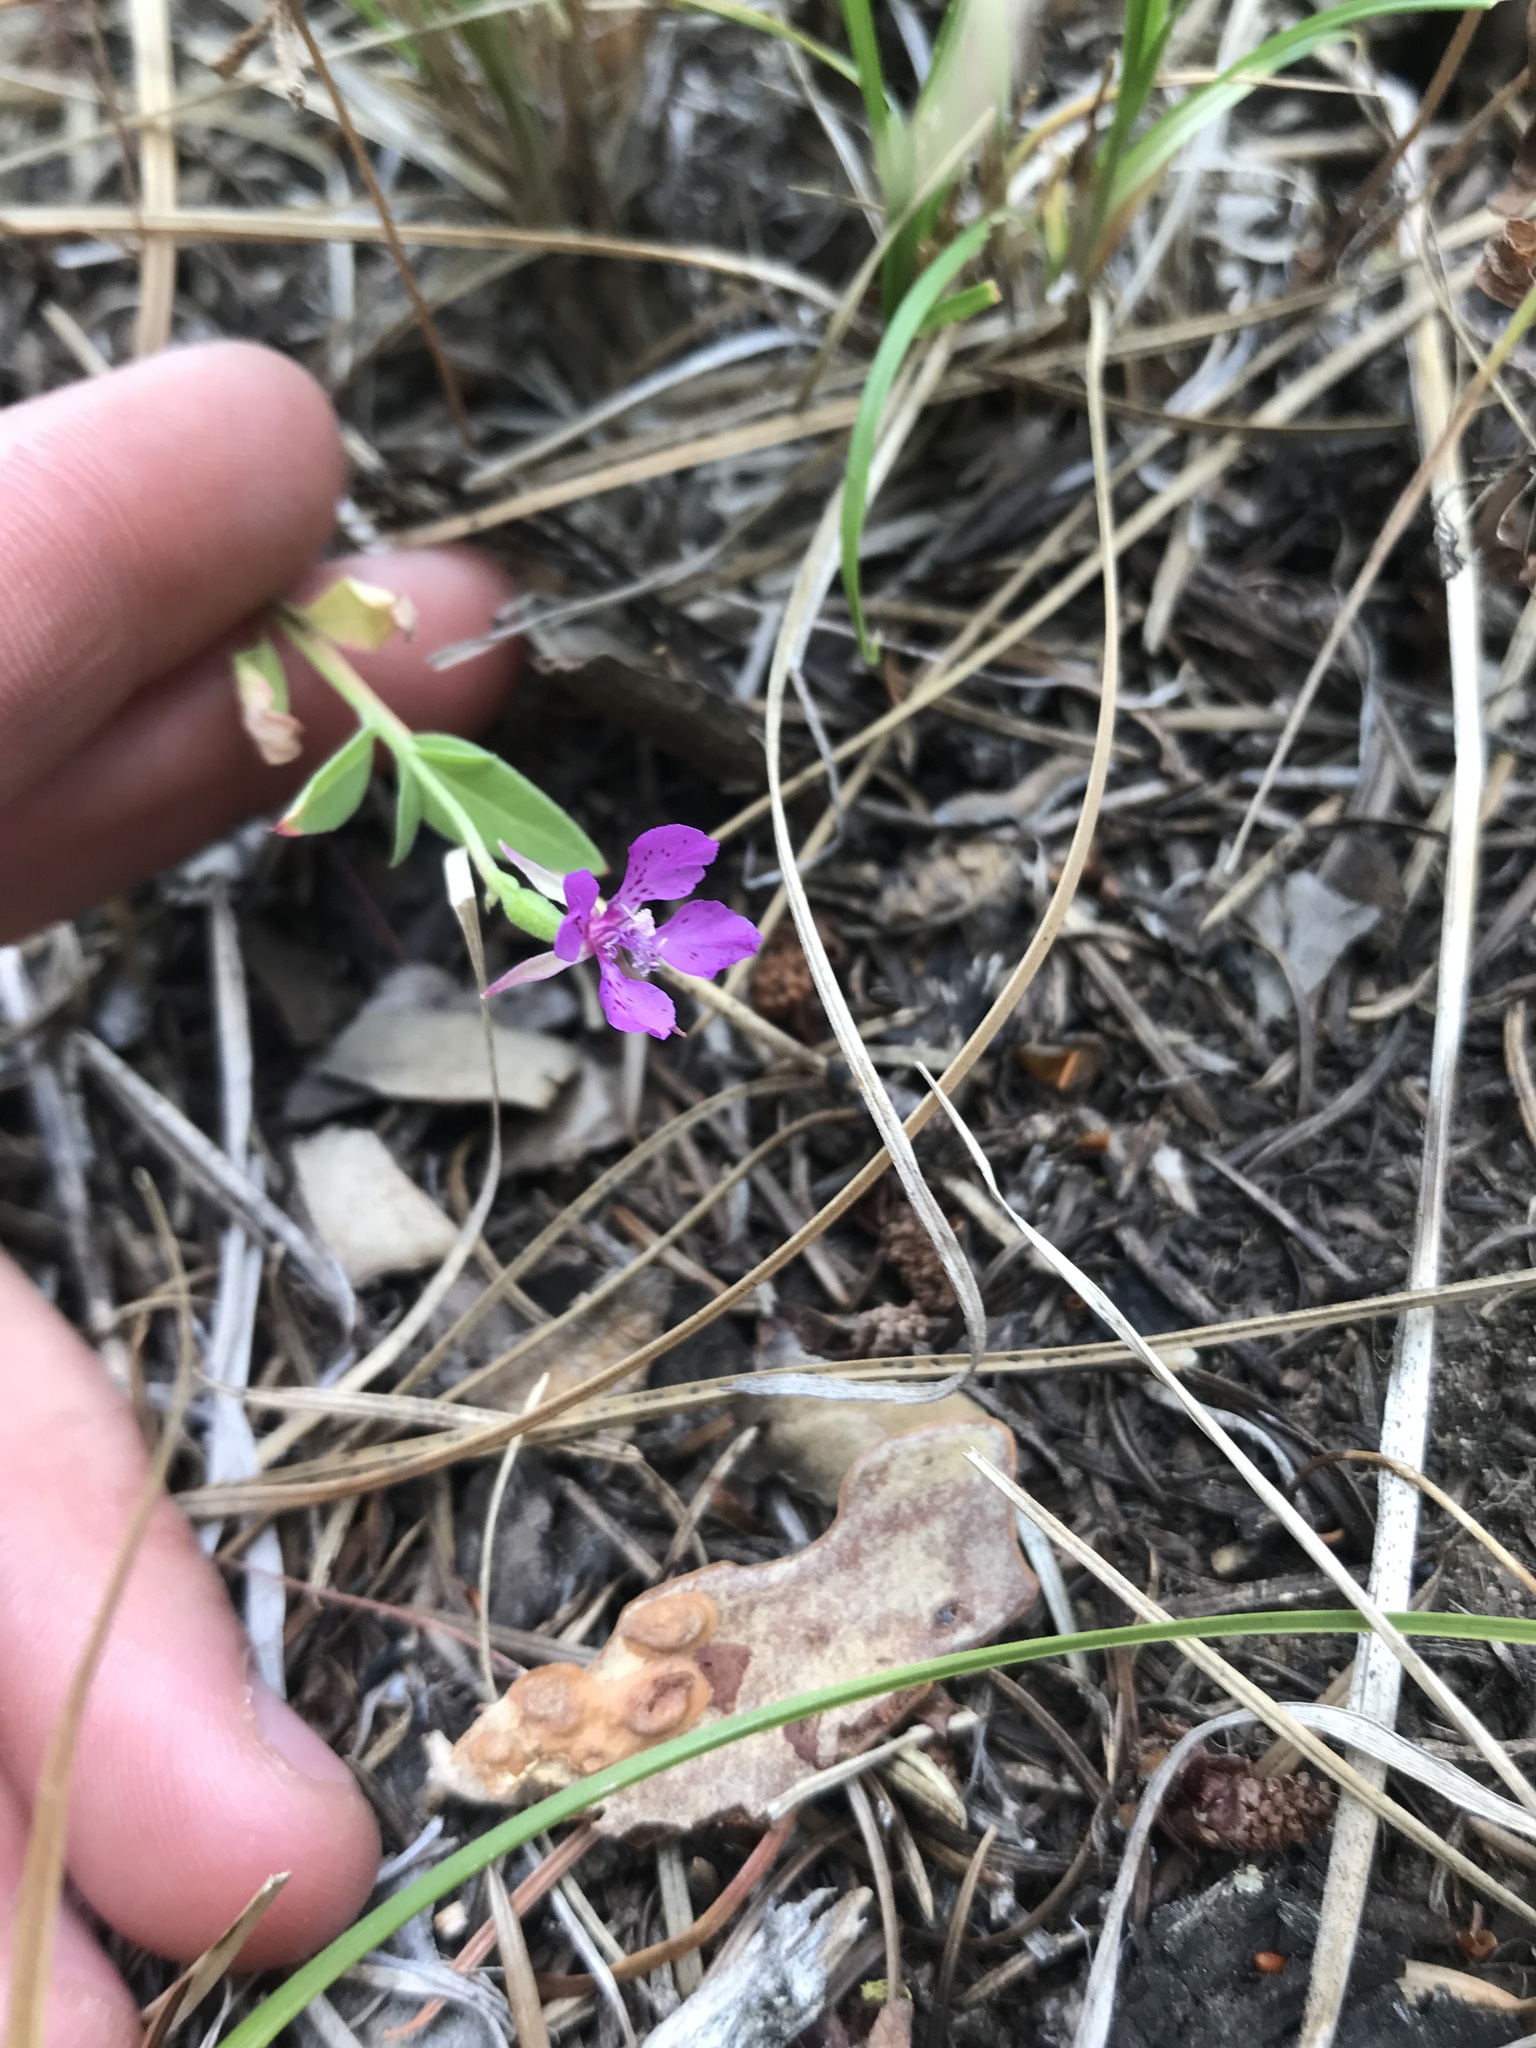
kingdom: Plantae
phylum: Tracheophyta
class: Magnoliopsida
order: Myrtales
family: Onagraceae
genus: Clarkia
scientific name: Clarkia rhomboidea
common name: Broadleaf clarkia
